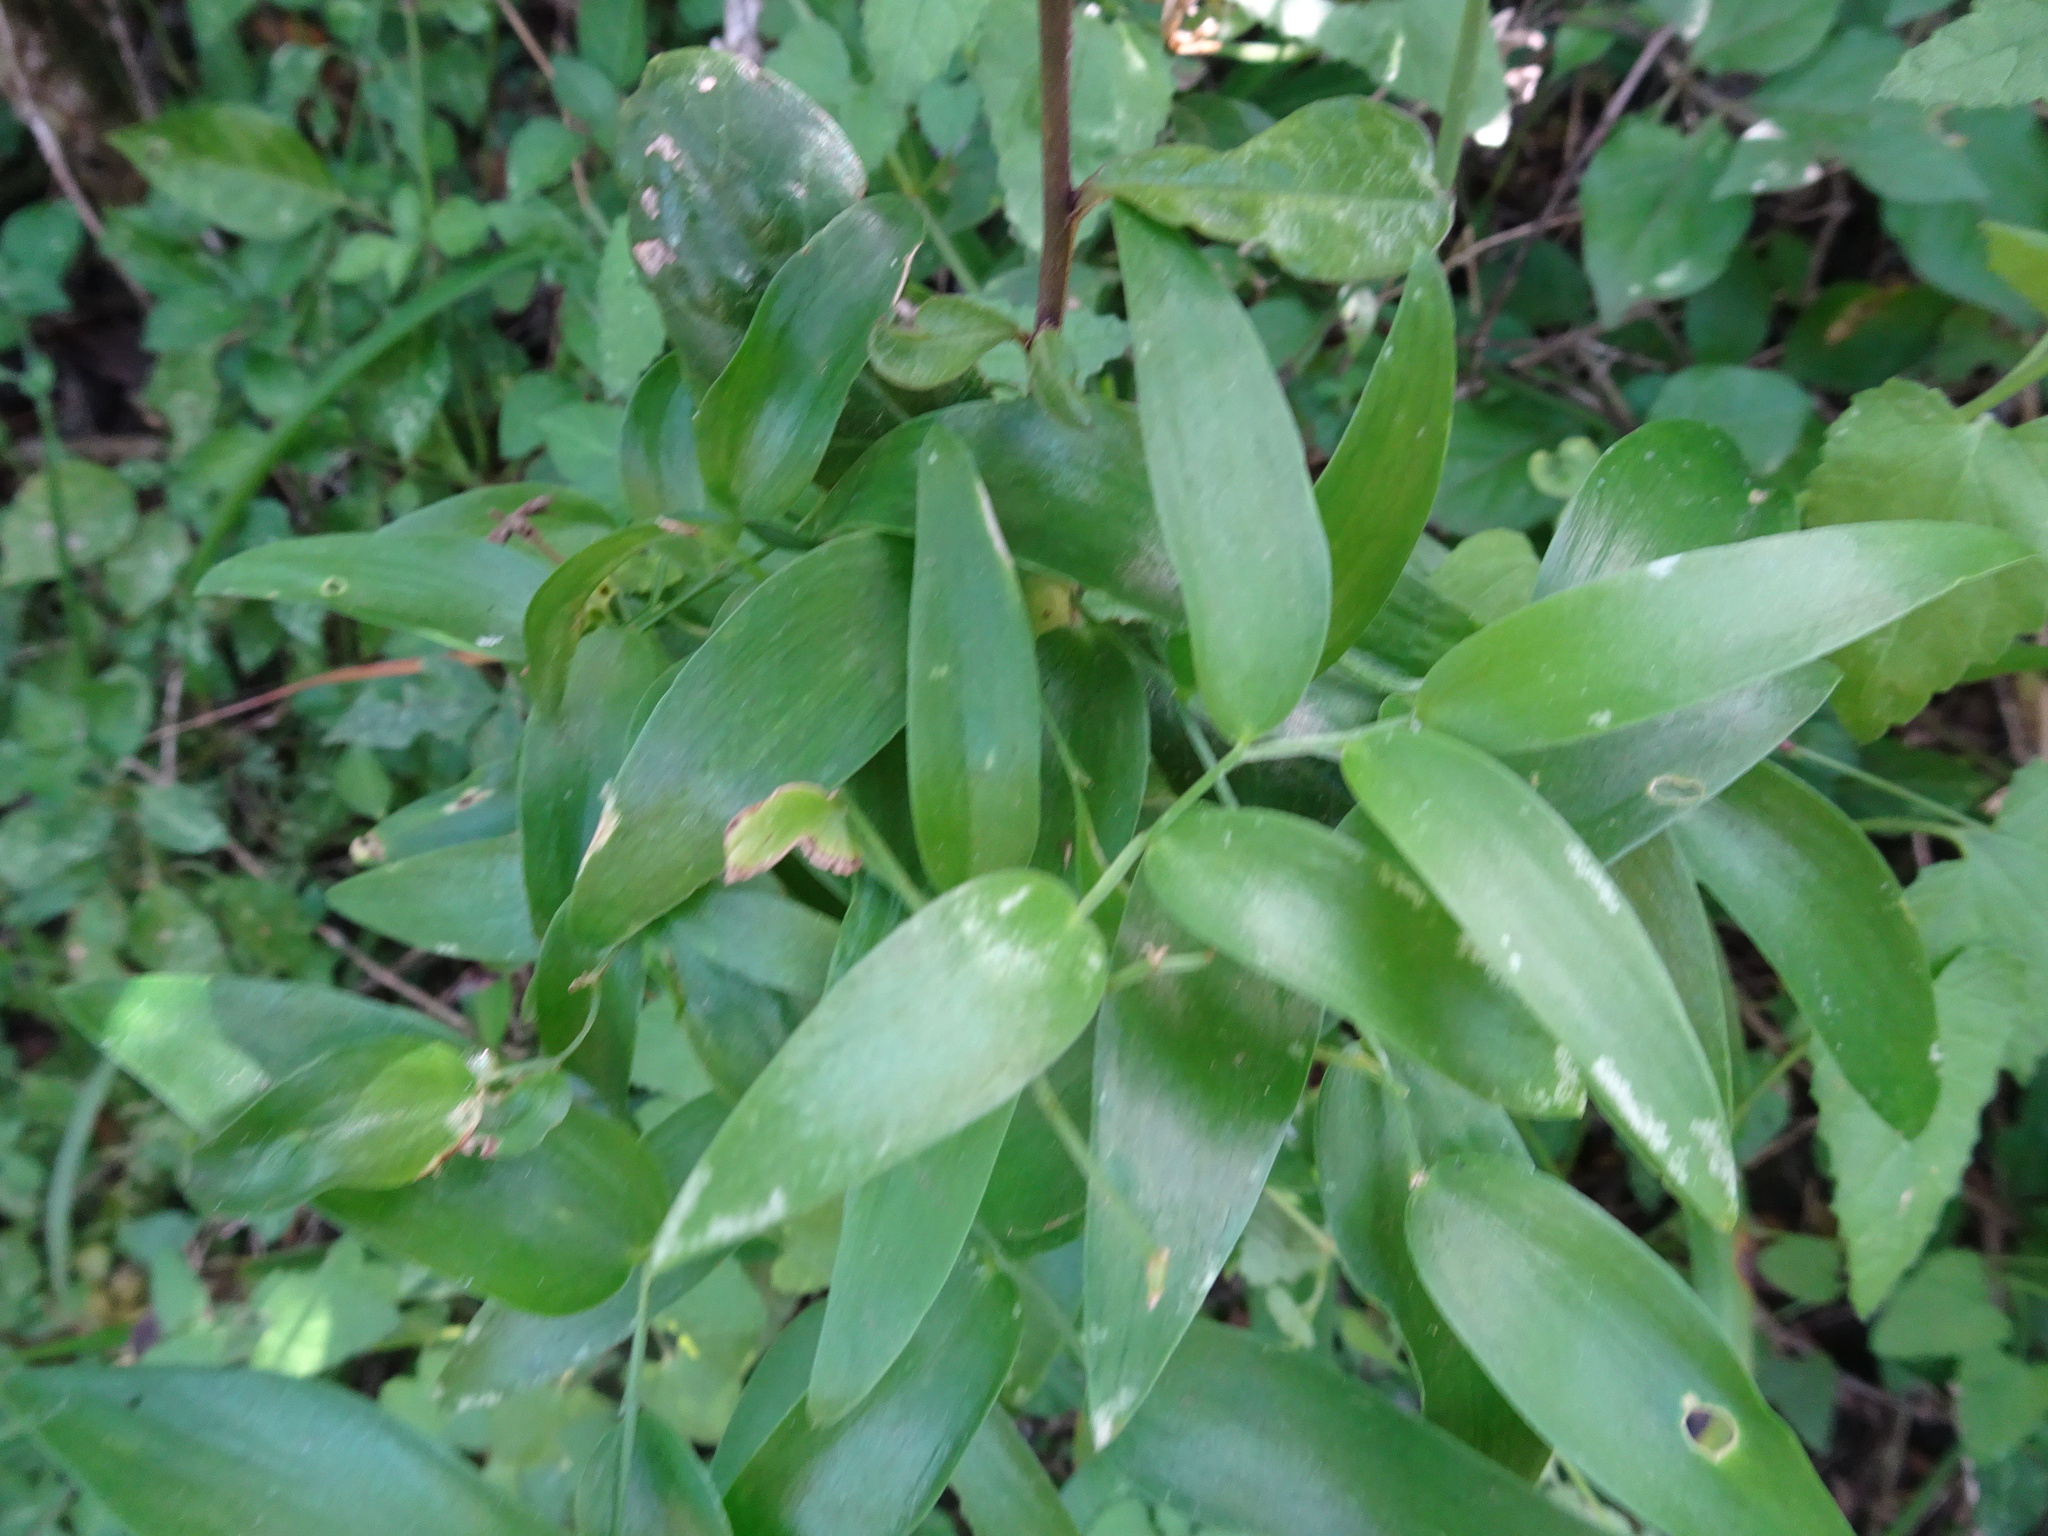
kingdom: Plantae
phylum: Tracheophyta
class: Liliopsida
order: Asparagales
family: Asparagaceae
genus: Asparagus
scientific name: Asparagus asparagoides
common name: African asparagus fern
